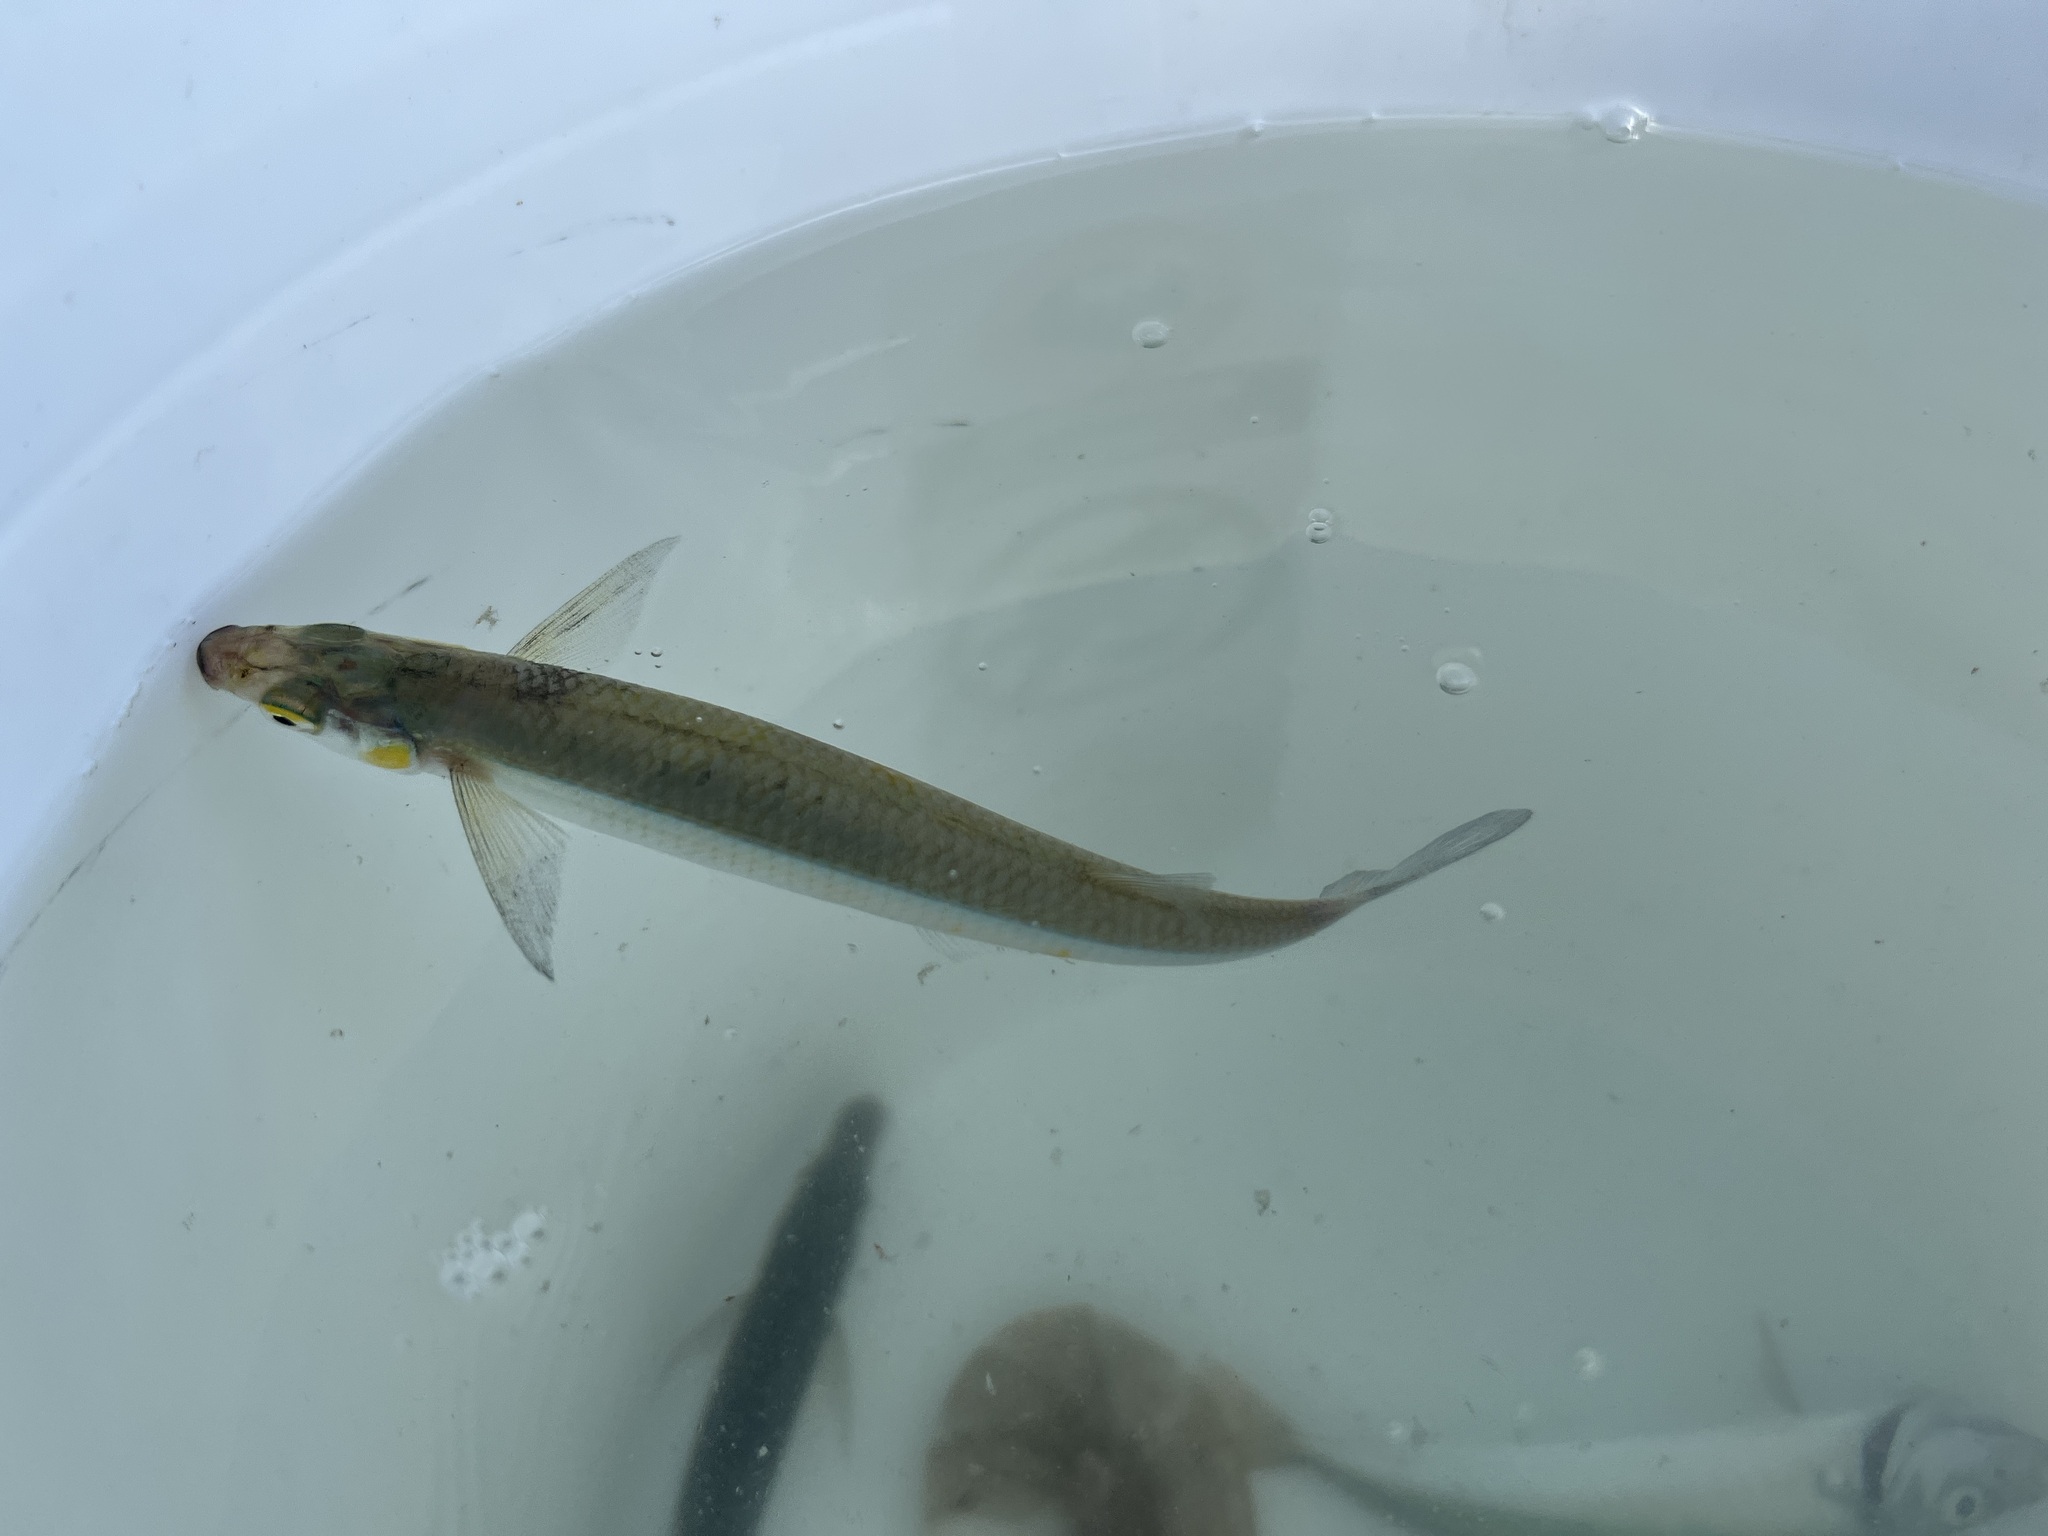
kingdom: Animalia
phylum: Chordata
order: Atheriniformes
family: Atherinopsidae
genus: Atherinops
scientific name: Atherinops affinis
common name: Topsmelt
